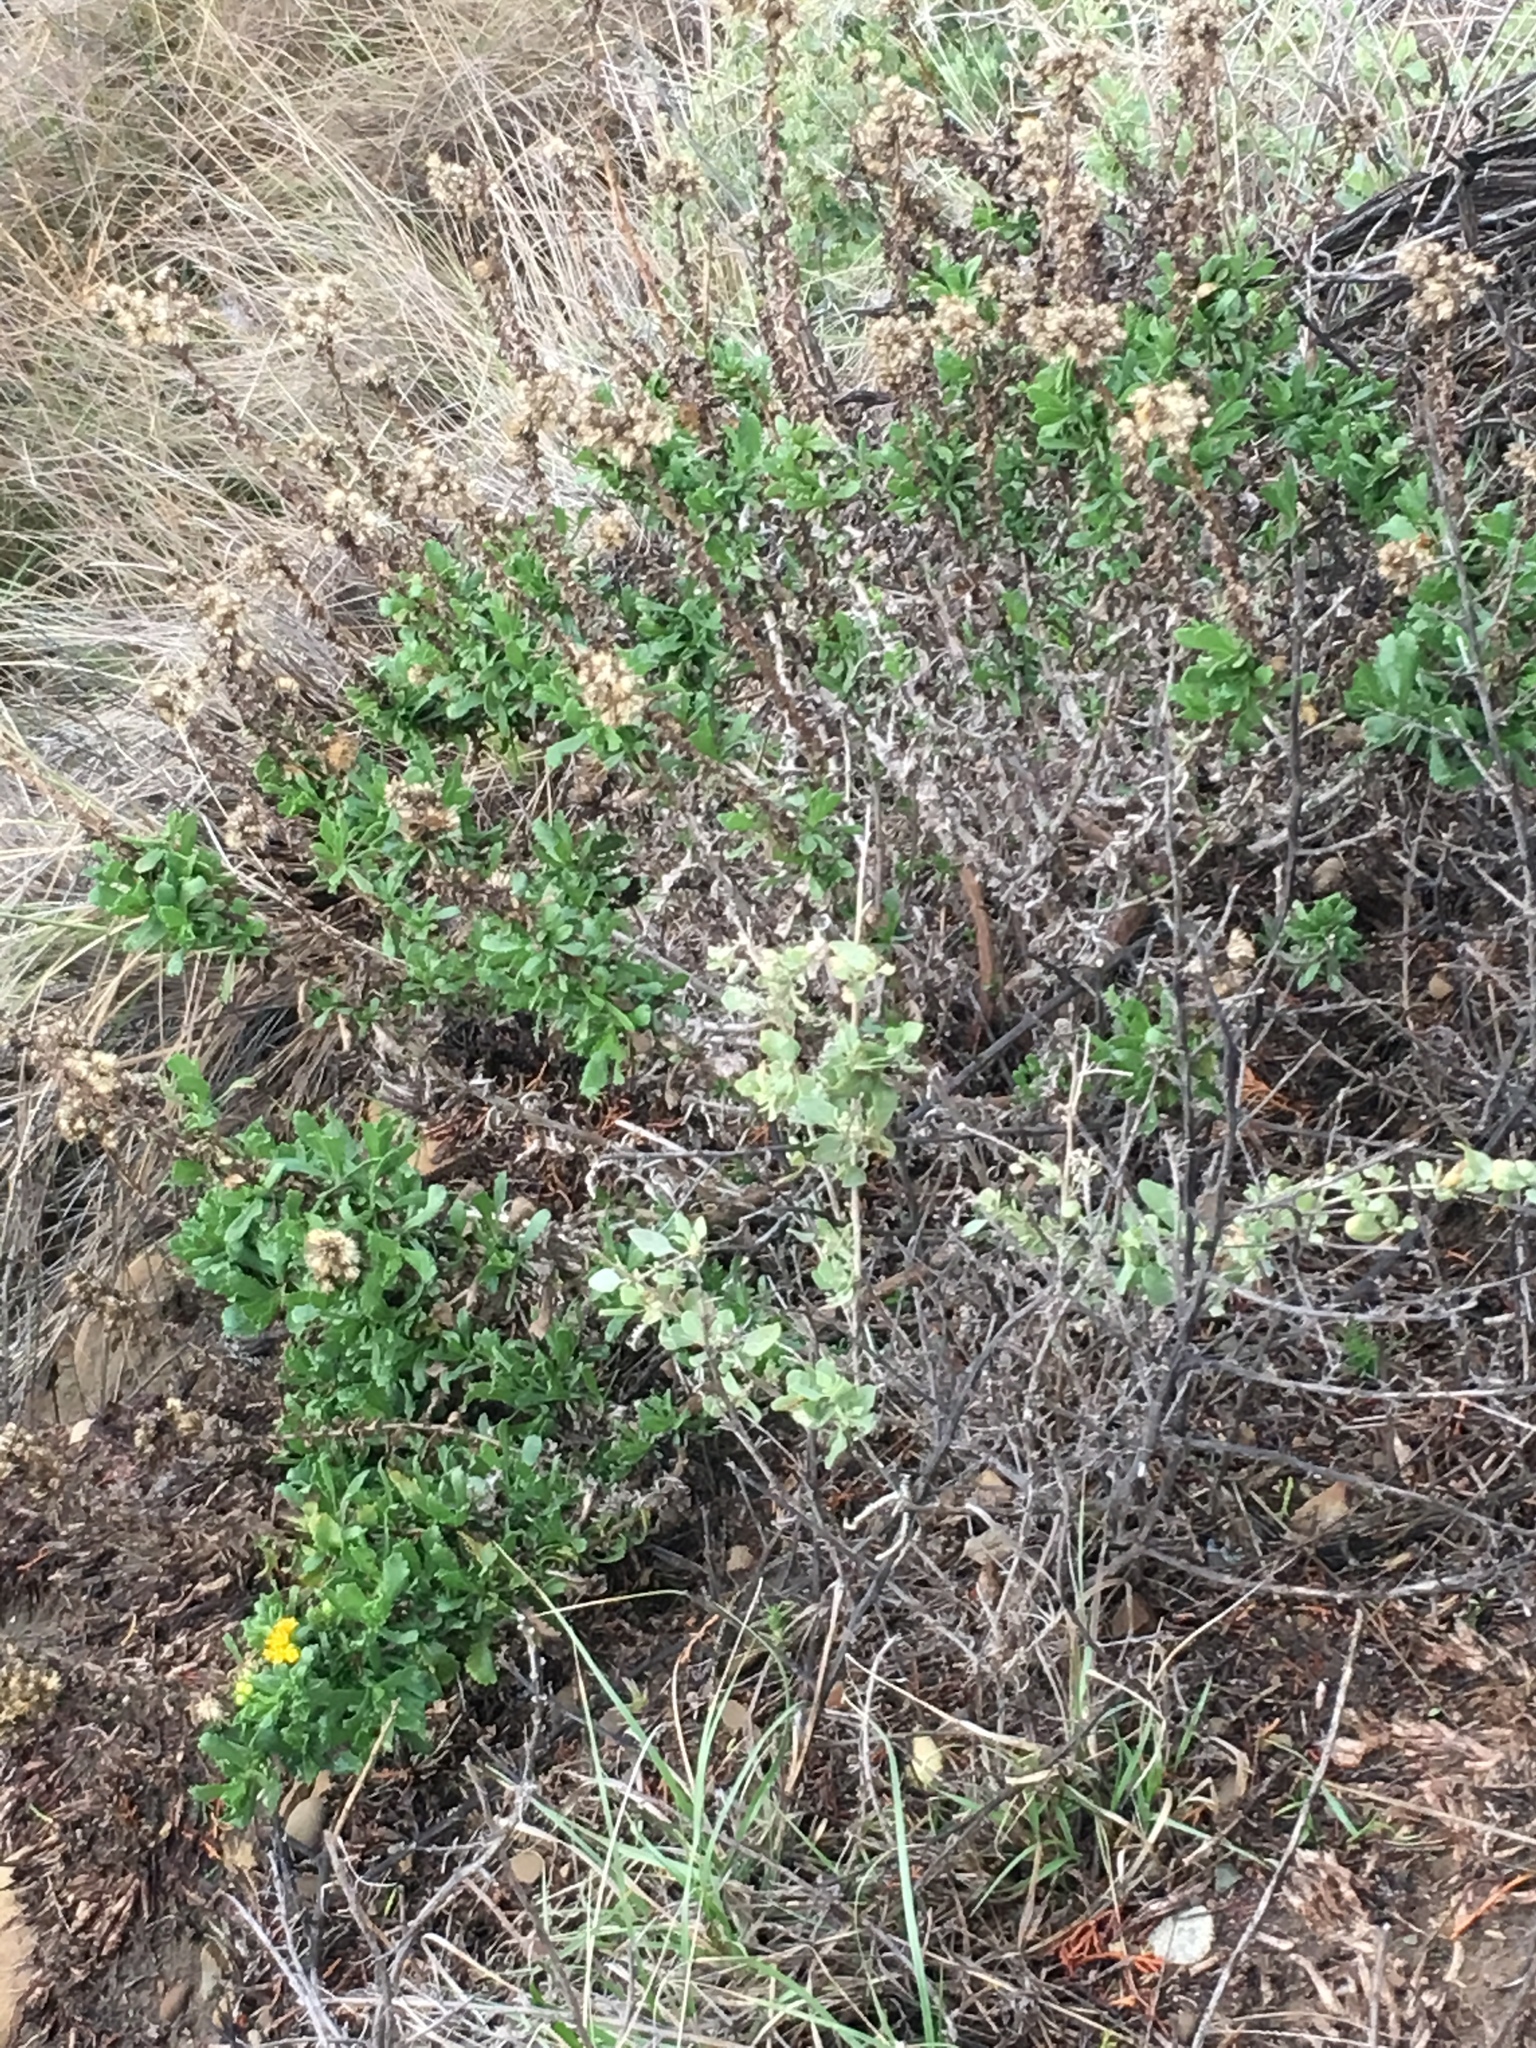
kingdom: Plantae
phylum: Tracheophyta
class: Magnoliopsida
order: Asterales
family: Asteraceae
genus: Isocoma
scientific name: Isocoma menziesii
